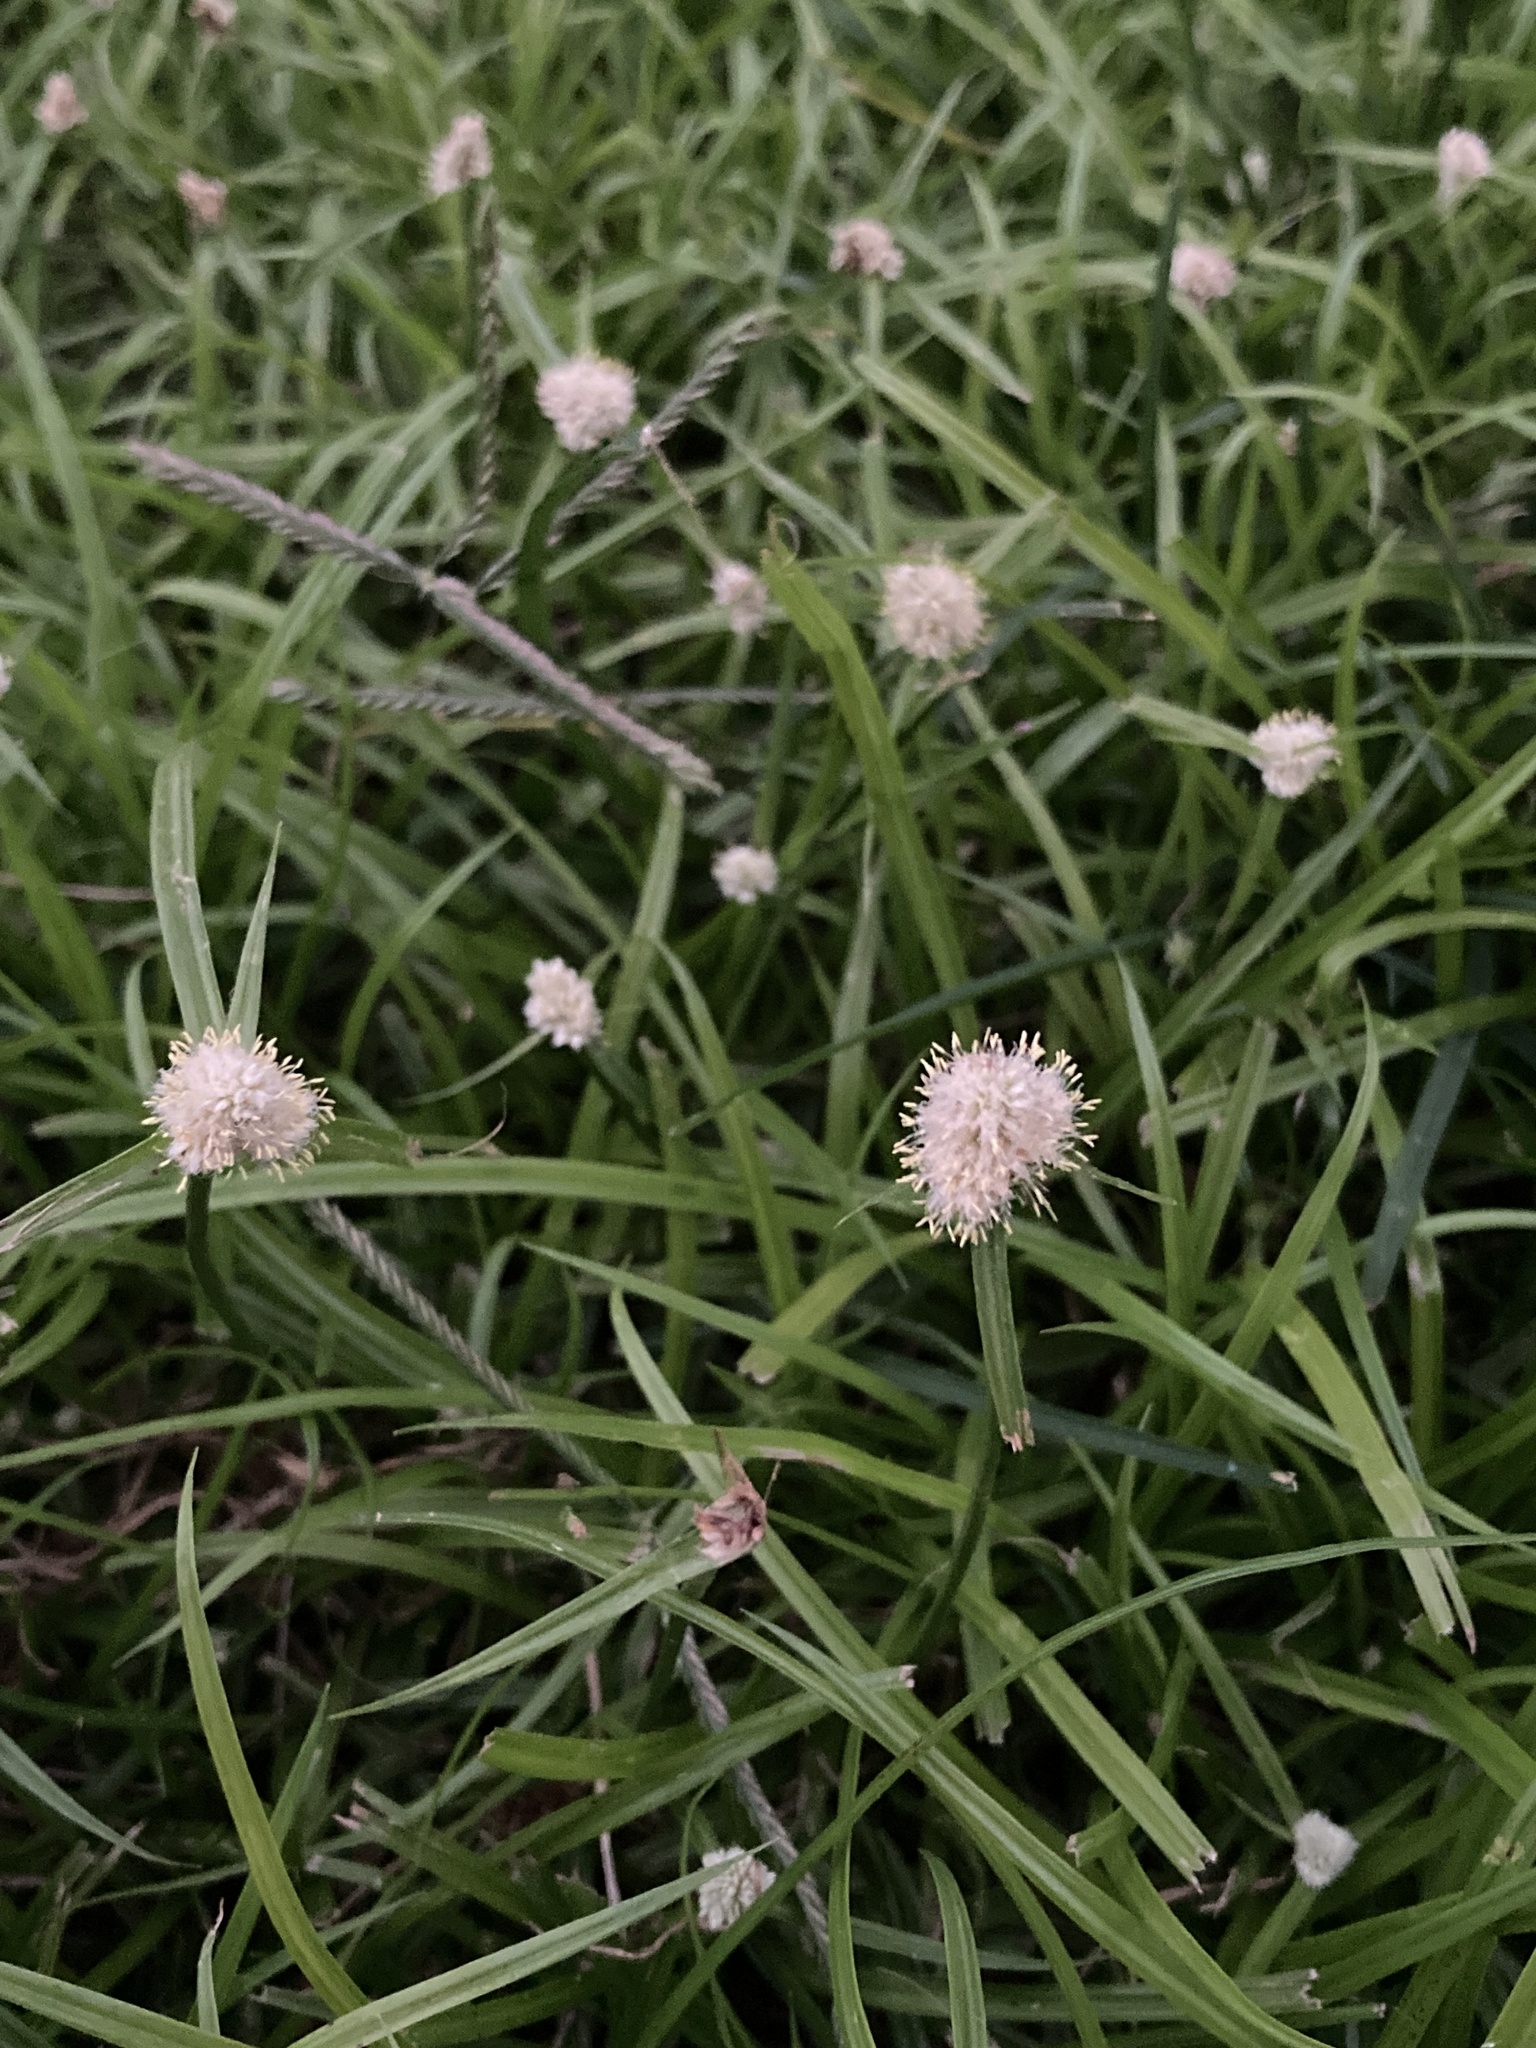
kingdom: Plantae
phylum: Tracheophyta
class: Liliopsida
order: Poales
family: Cyperaceae
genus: Cyperus
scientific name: Cyperus richardii
